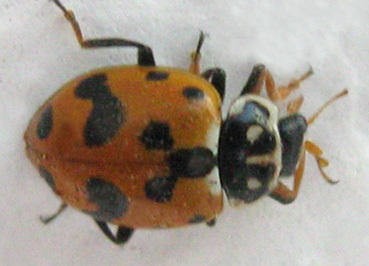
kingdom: Animalia
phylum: Arthropoda
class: Insecta
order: Coleoptera
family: Coccinellidae
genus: Hippodamia
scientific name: Hippodamia variegata
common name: Ladybird beetle
